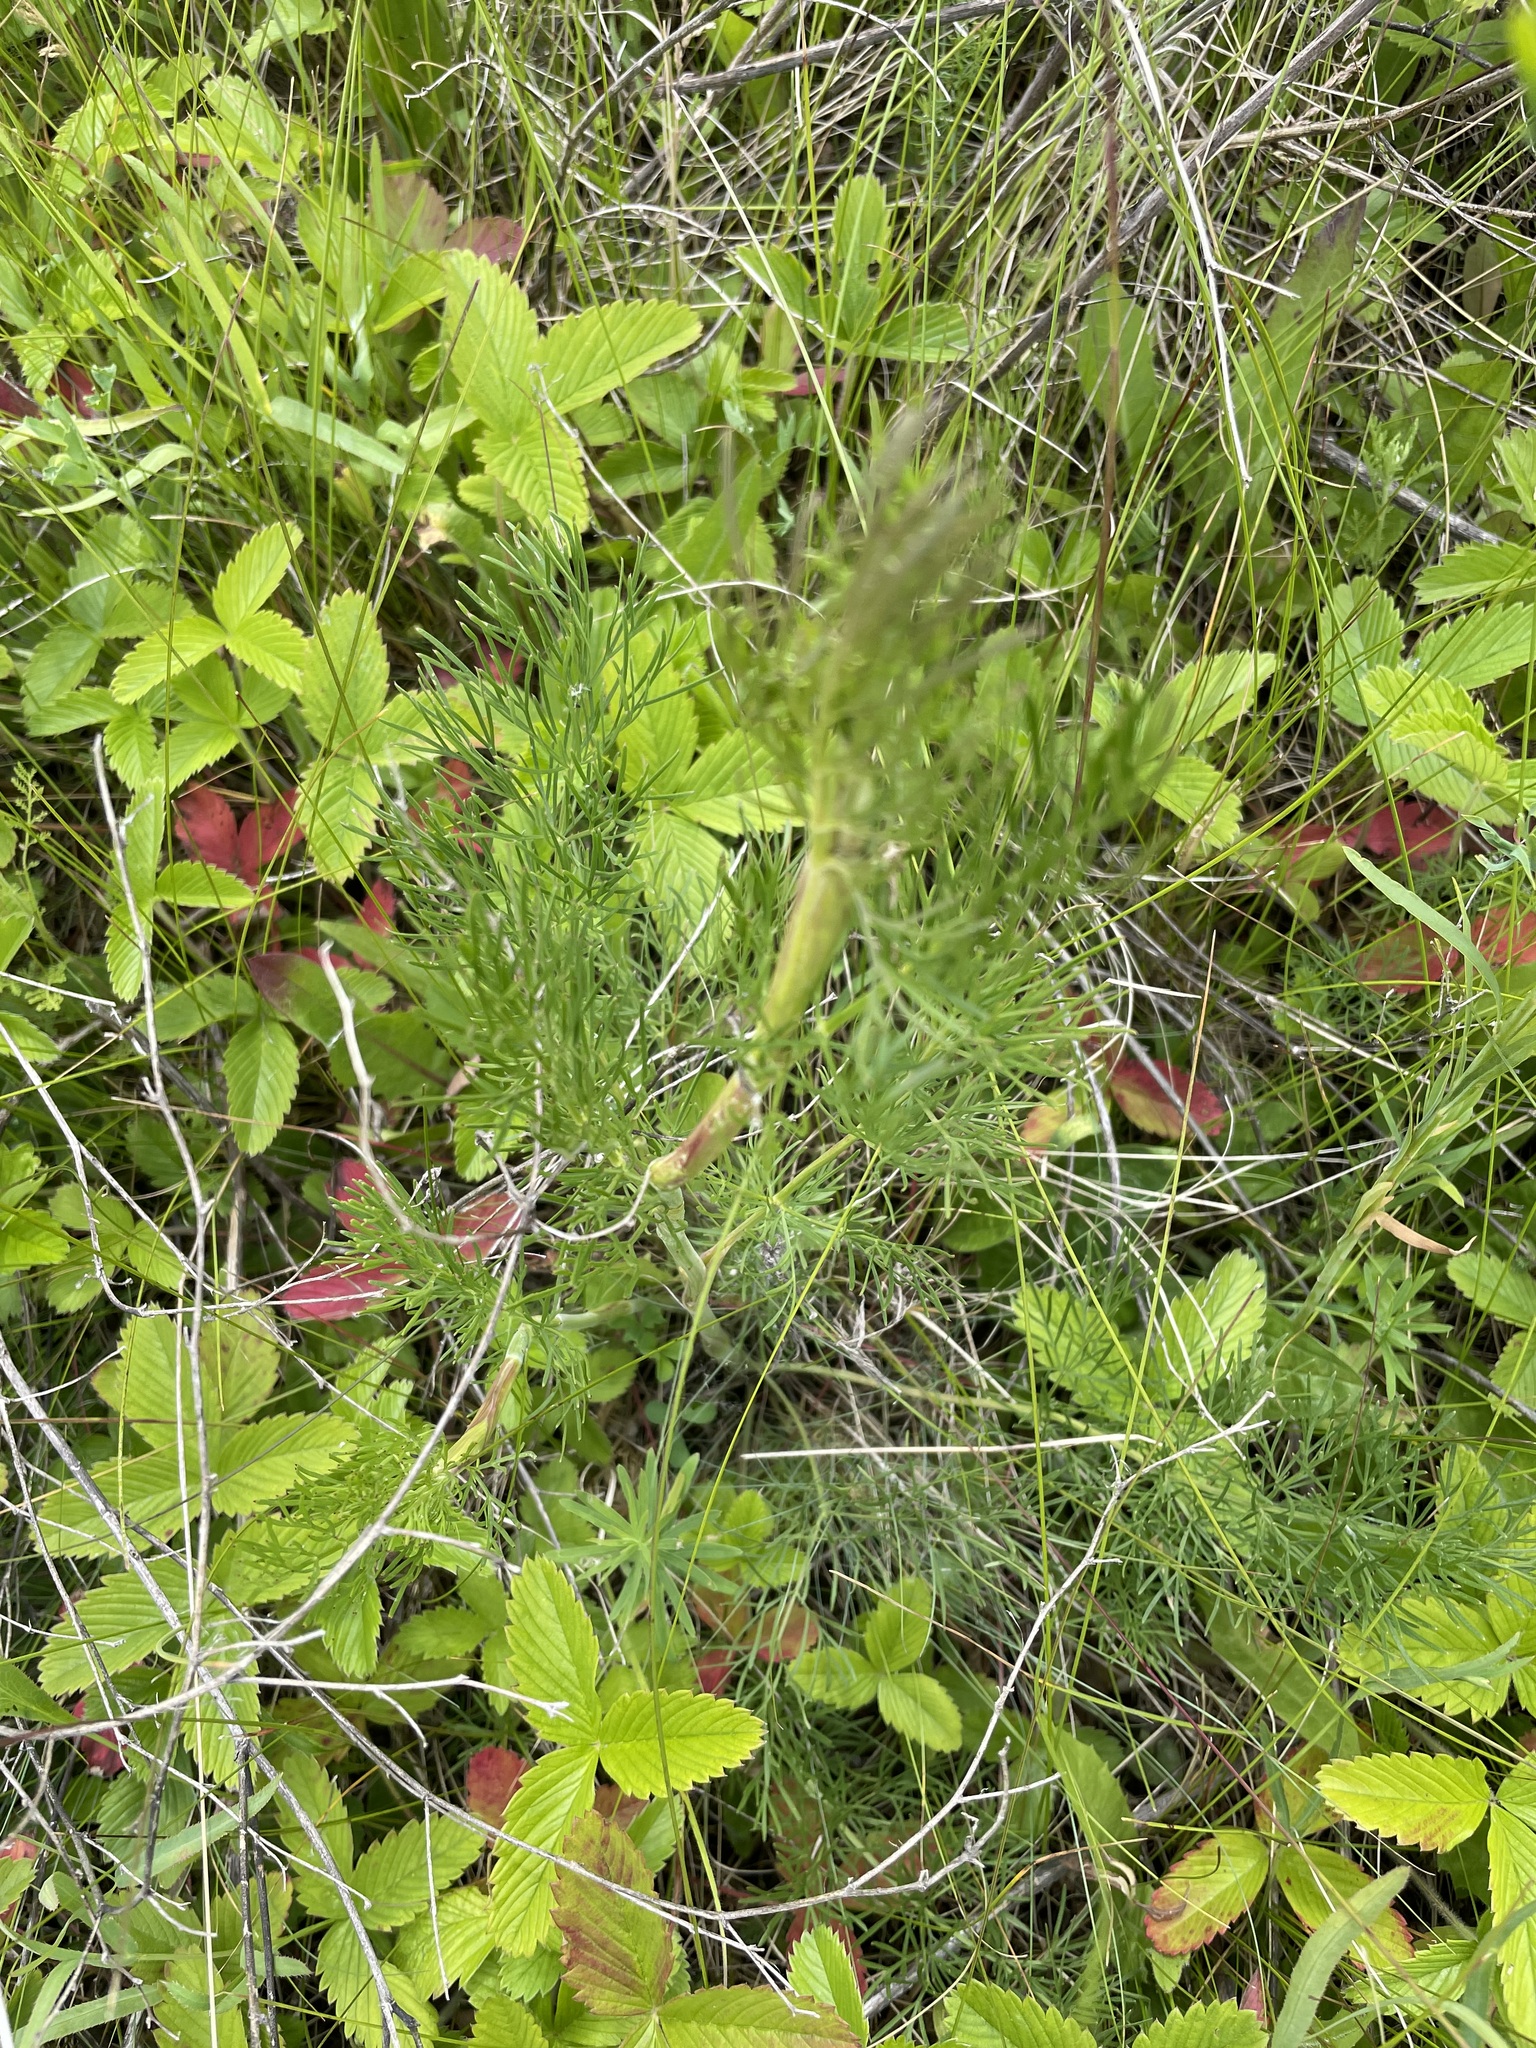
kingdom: Plantae
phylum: Tracheophyta
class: Magnoliopsida
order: Apiales
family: Apiaceae
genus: Seseli
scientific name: Seseli annuum
